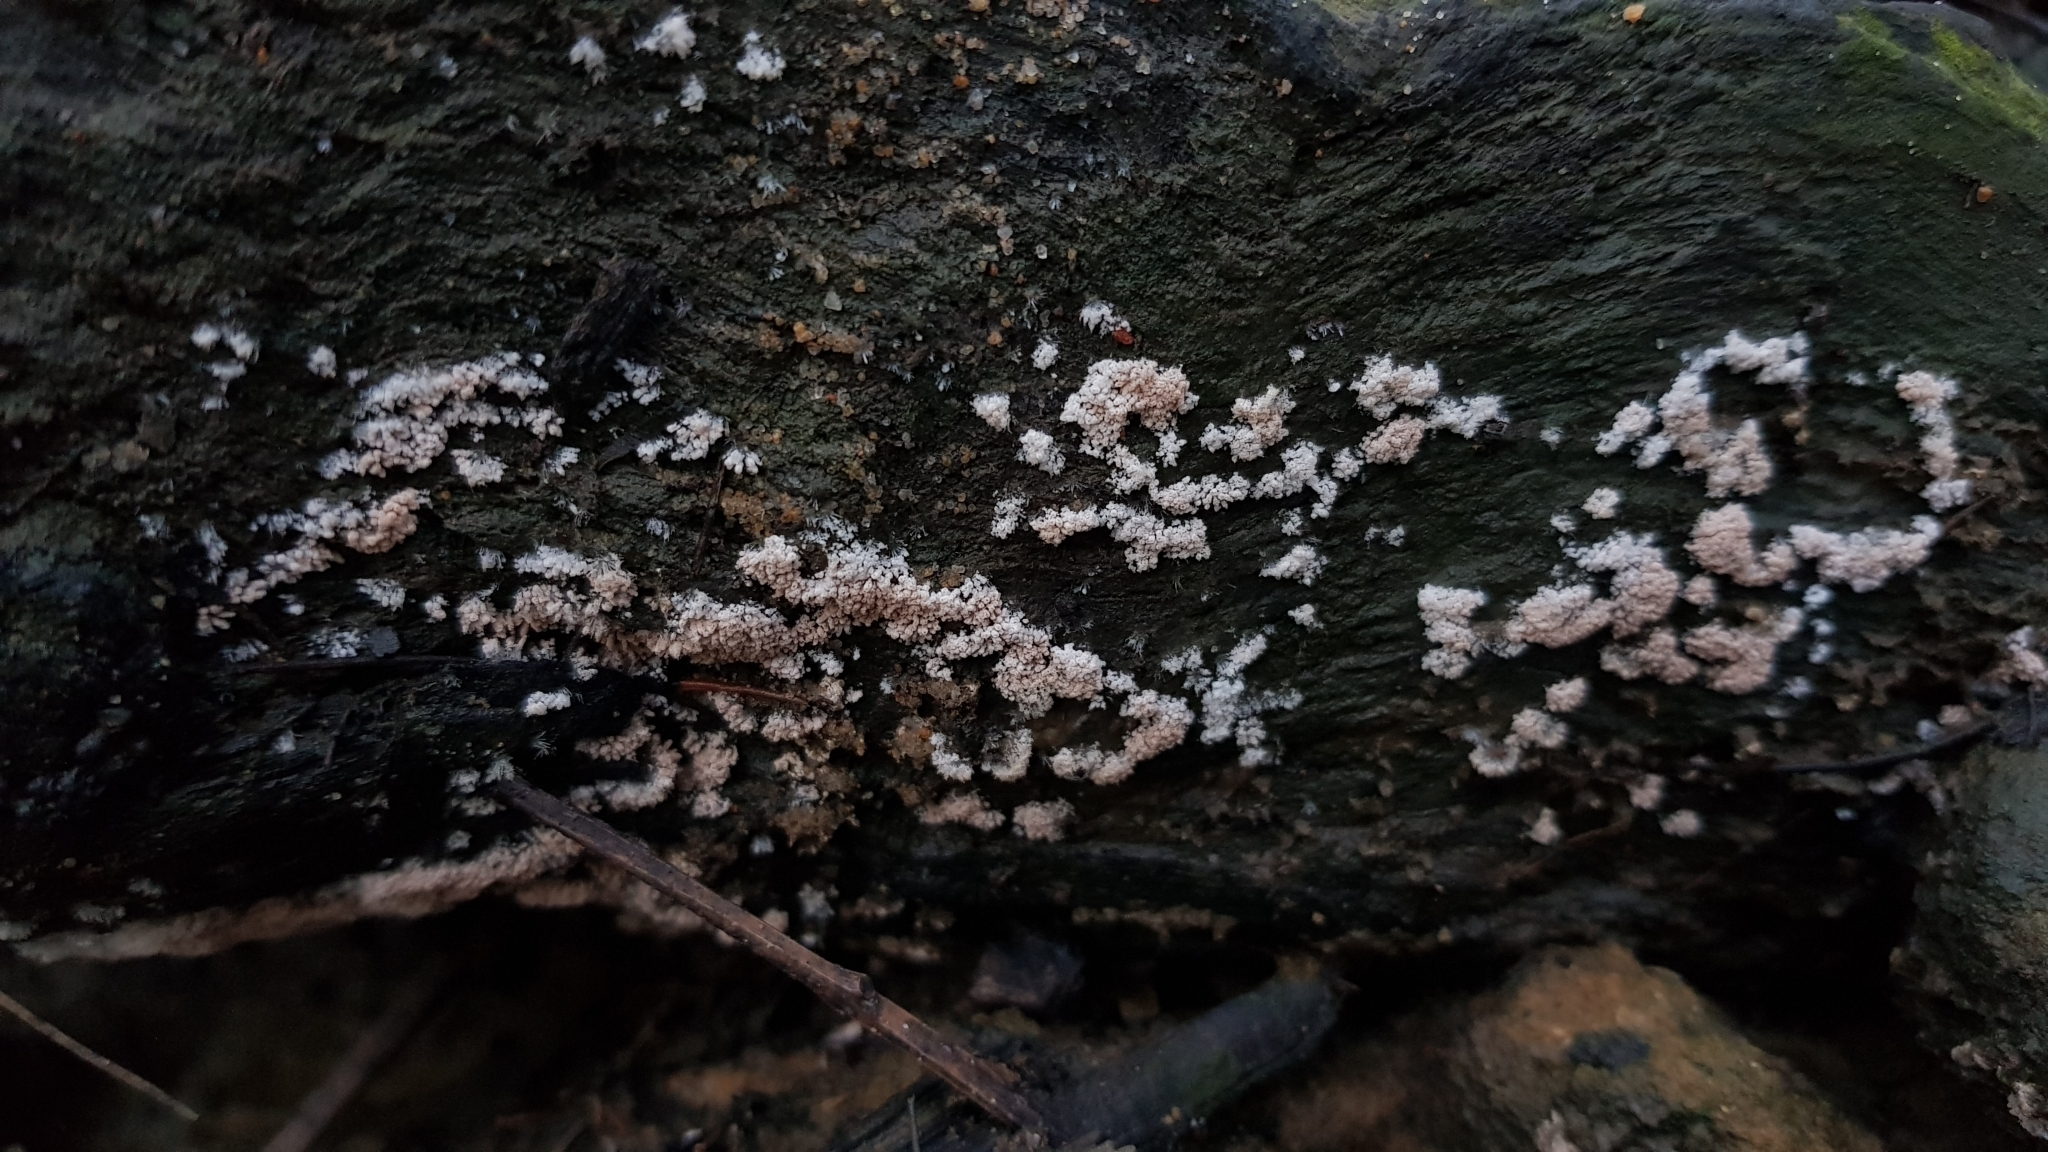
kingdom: Fungi
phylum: Ascomycota
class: Pezizomycetes
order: Pezizales
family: Pezizaceae
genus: Chromelosporiopsis
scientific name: Chromelosporiopsis carnea
